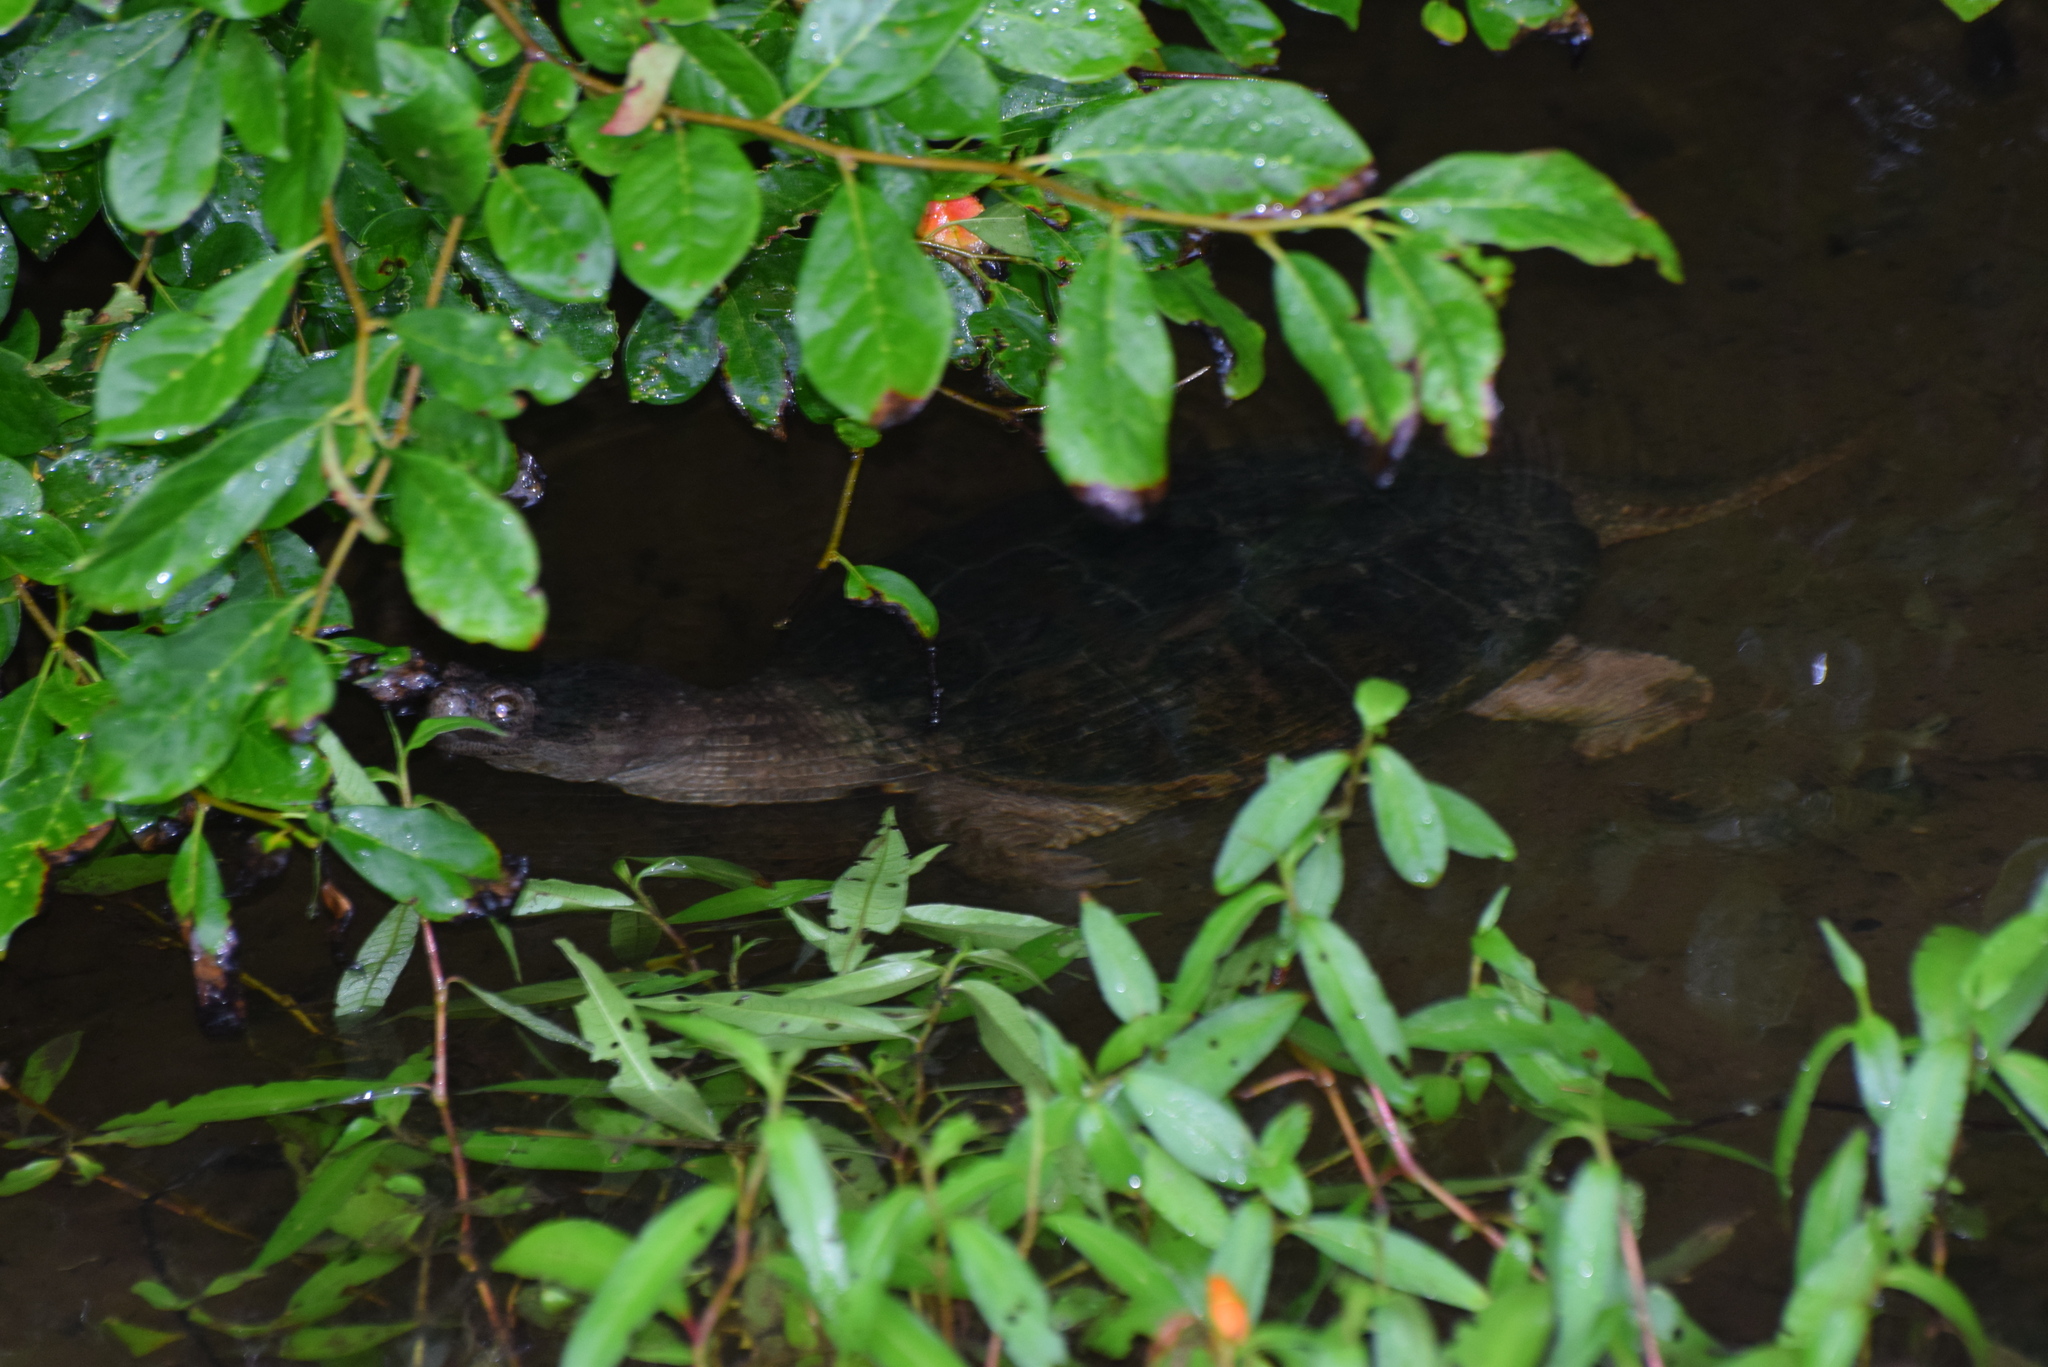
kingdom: Animalia
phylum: Chordata
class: Testudines
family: Chelydridae
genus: Chelydra
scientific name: Chelydra serpentina
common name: Common snapping turtle
